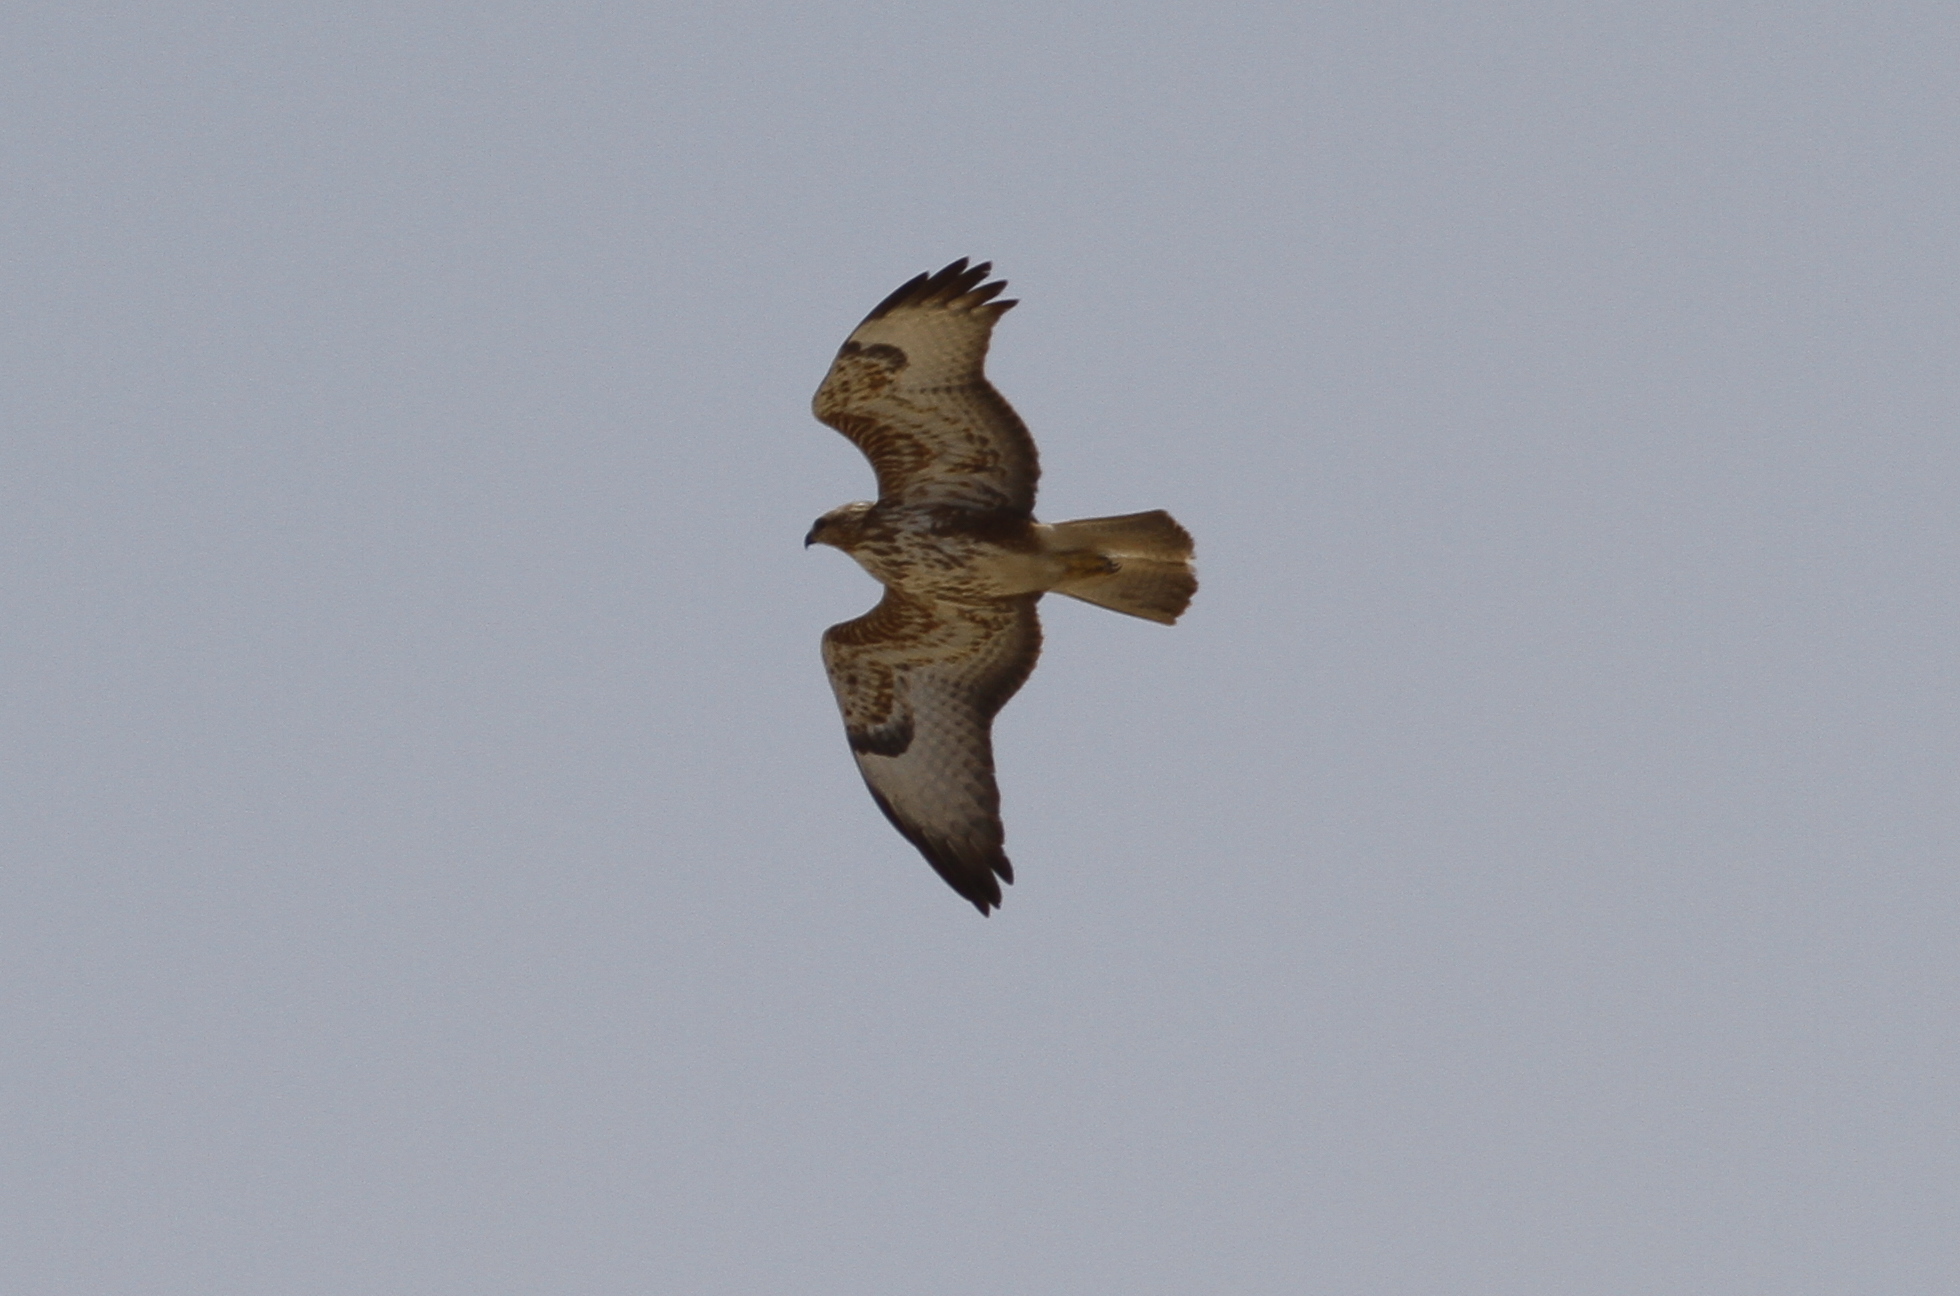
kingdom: Animalia
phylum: Chordata
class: Aves
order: Accipitriformes
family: Accipitridae
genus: Buteo
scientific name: Buteo buteo
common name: Common buzzard
